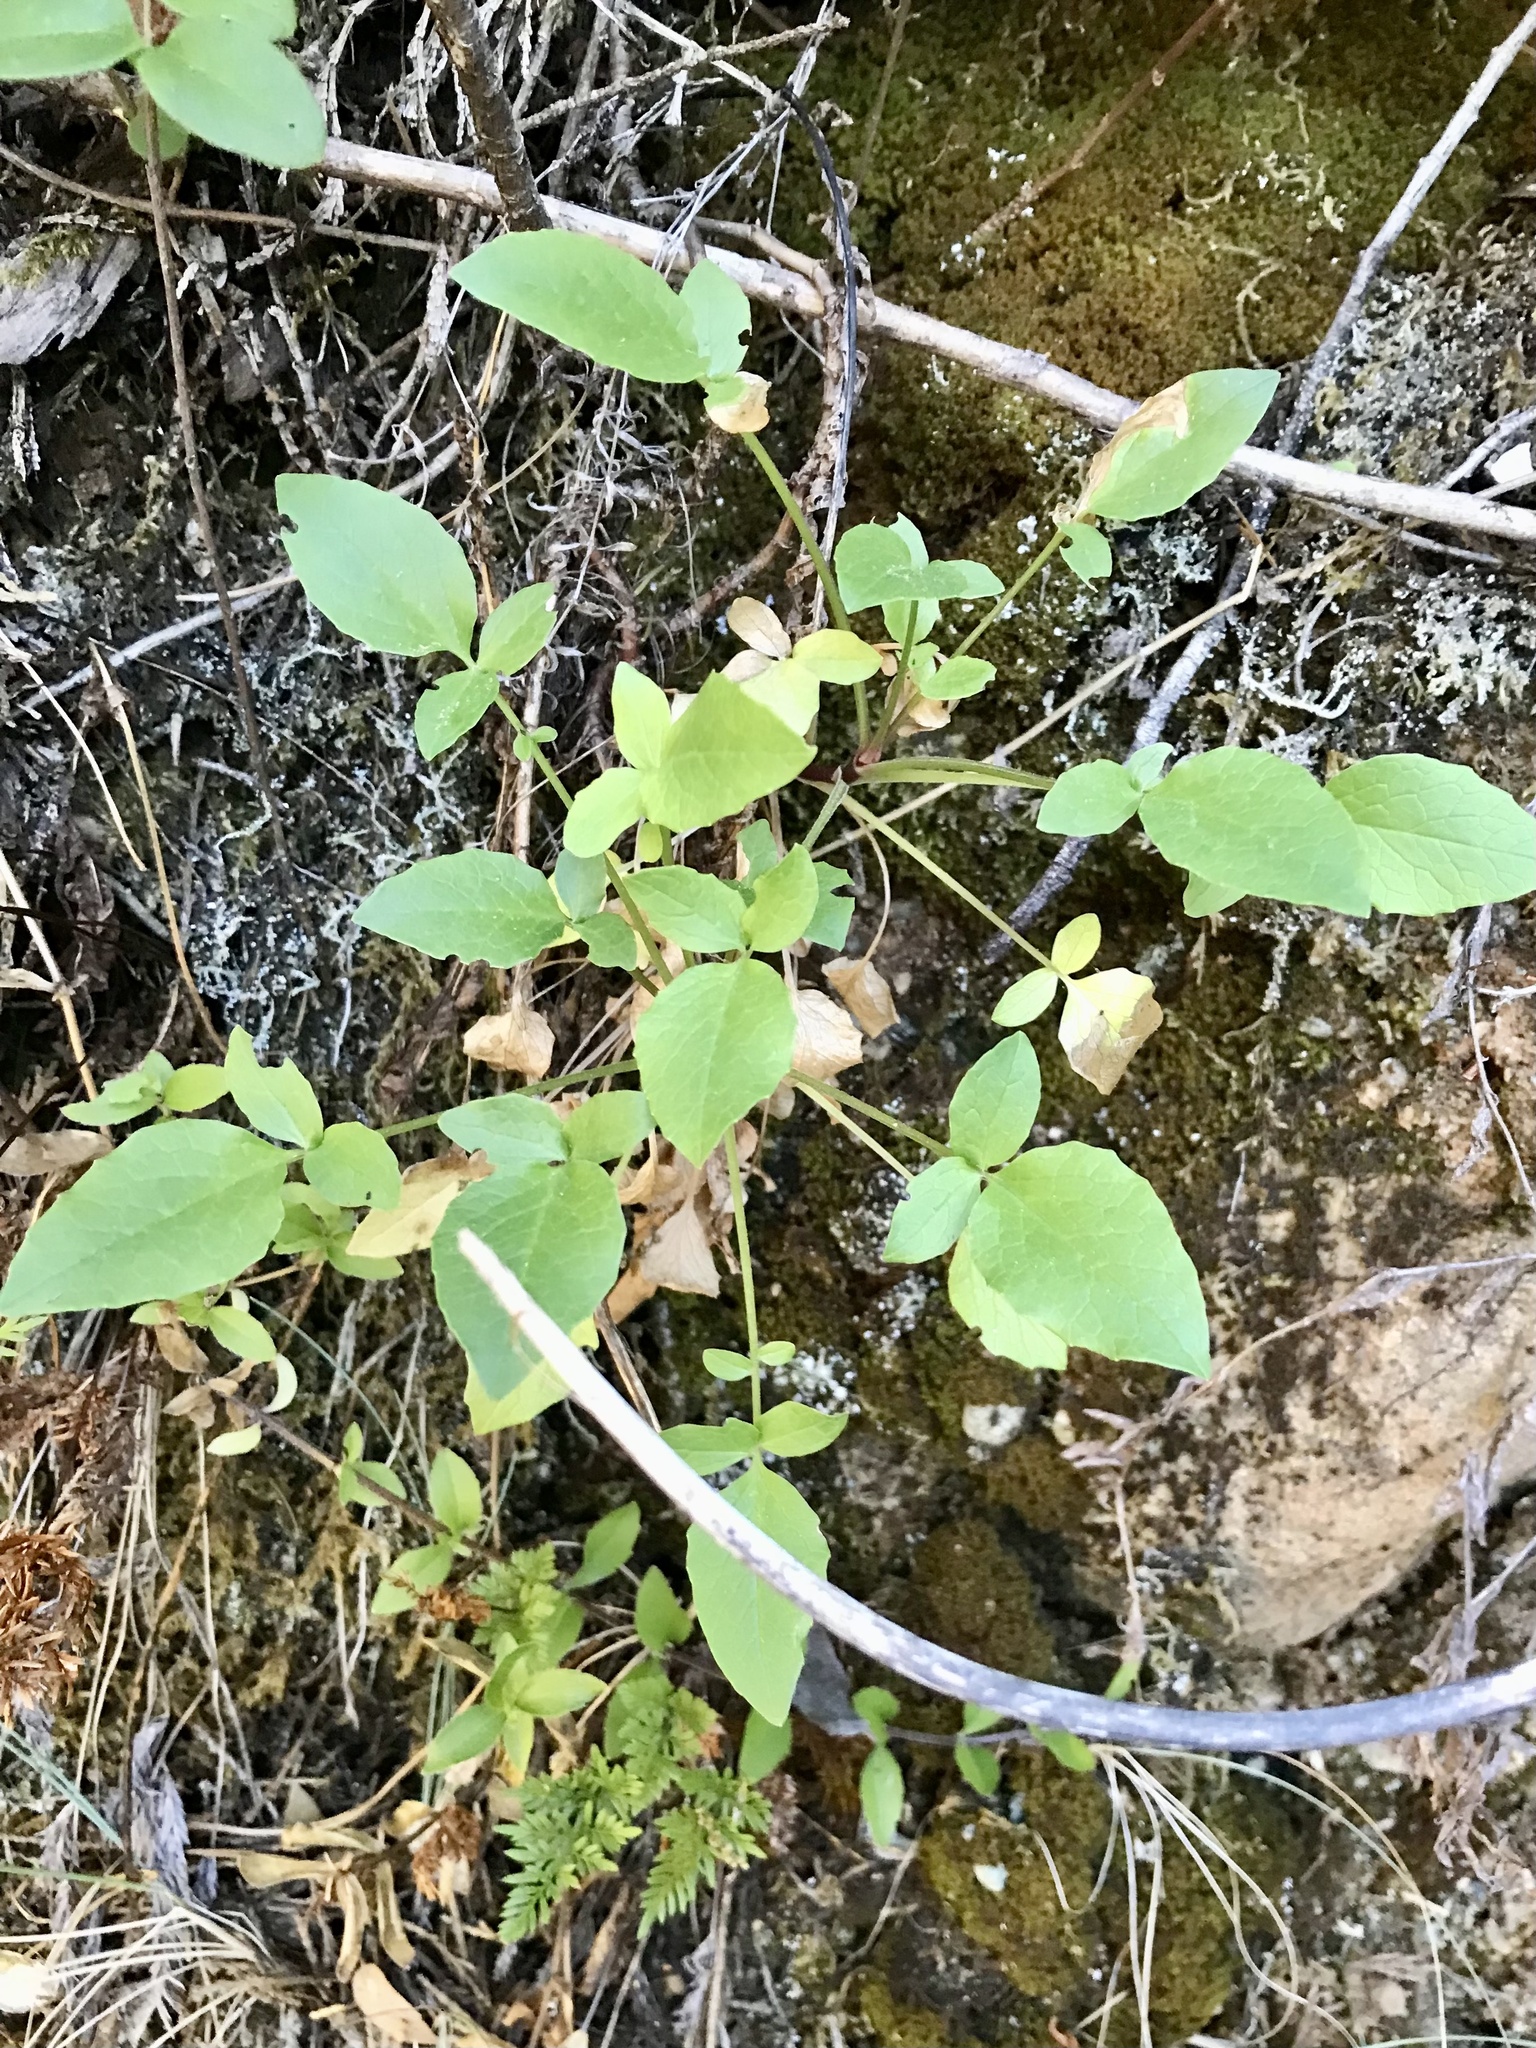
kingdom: Plantae
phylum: Tracheophyta
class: Magnoliopsida
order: Dipsacales
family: Caprifoliaceae
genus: Valeriana
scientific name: Valeriana sitchensis
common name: Pacific valerian
